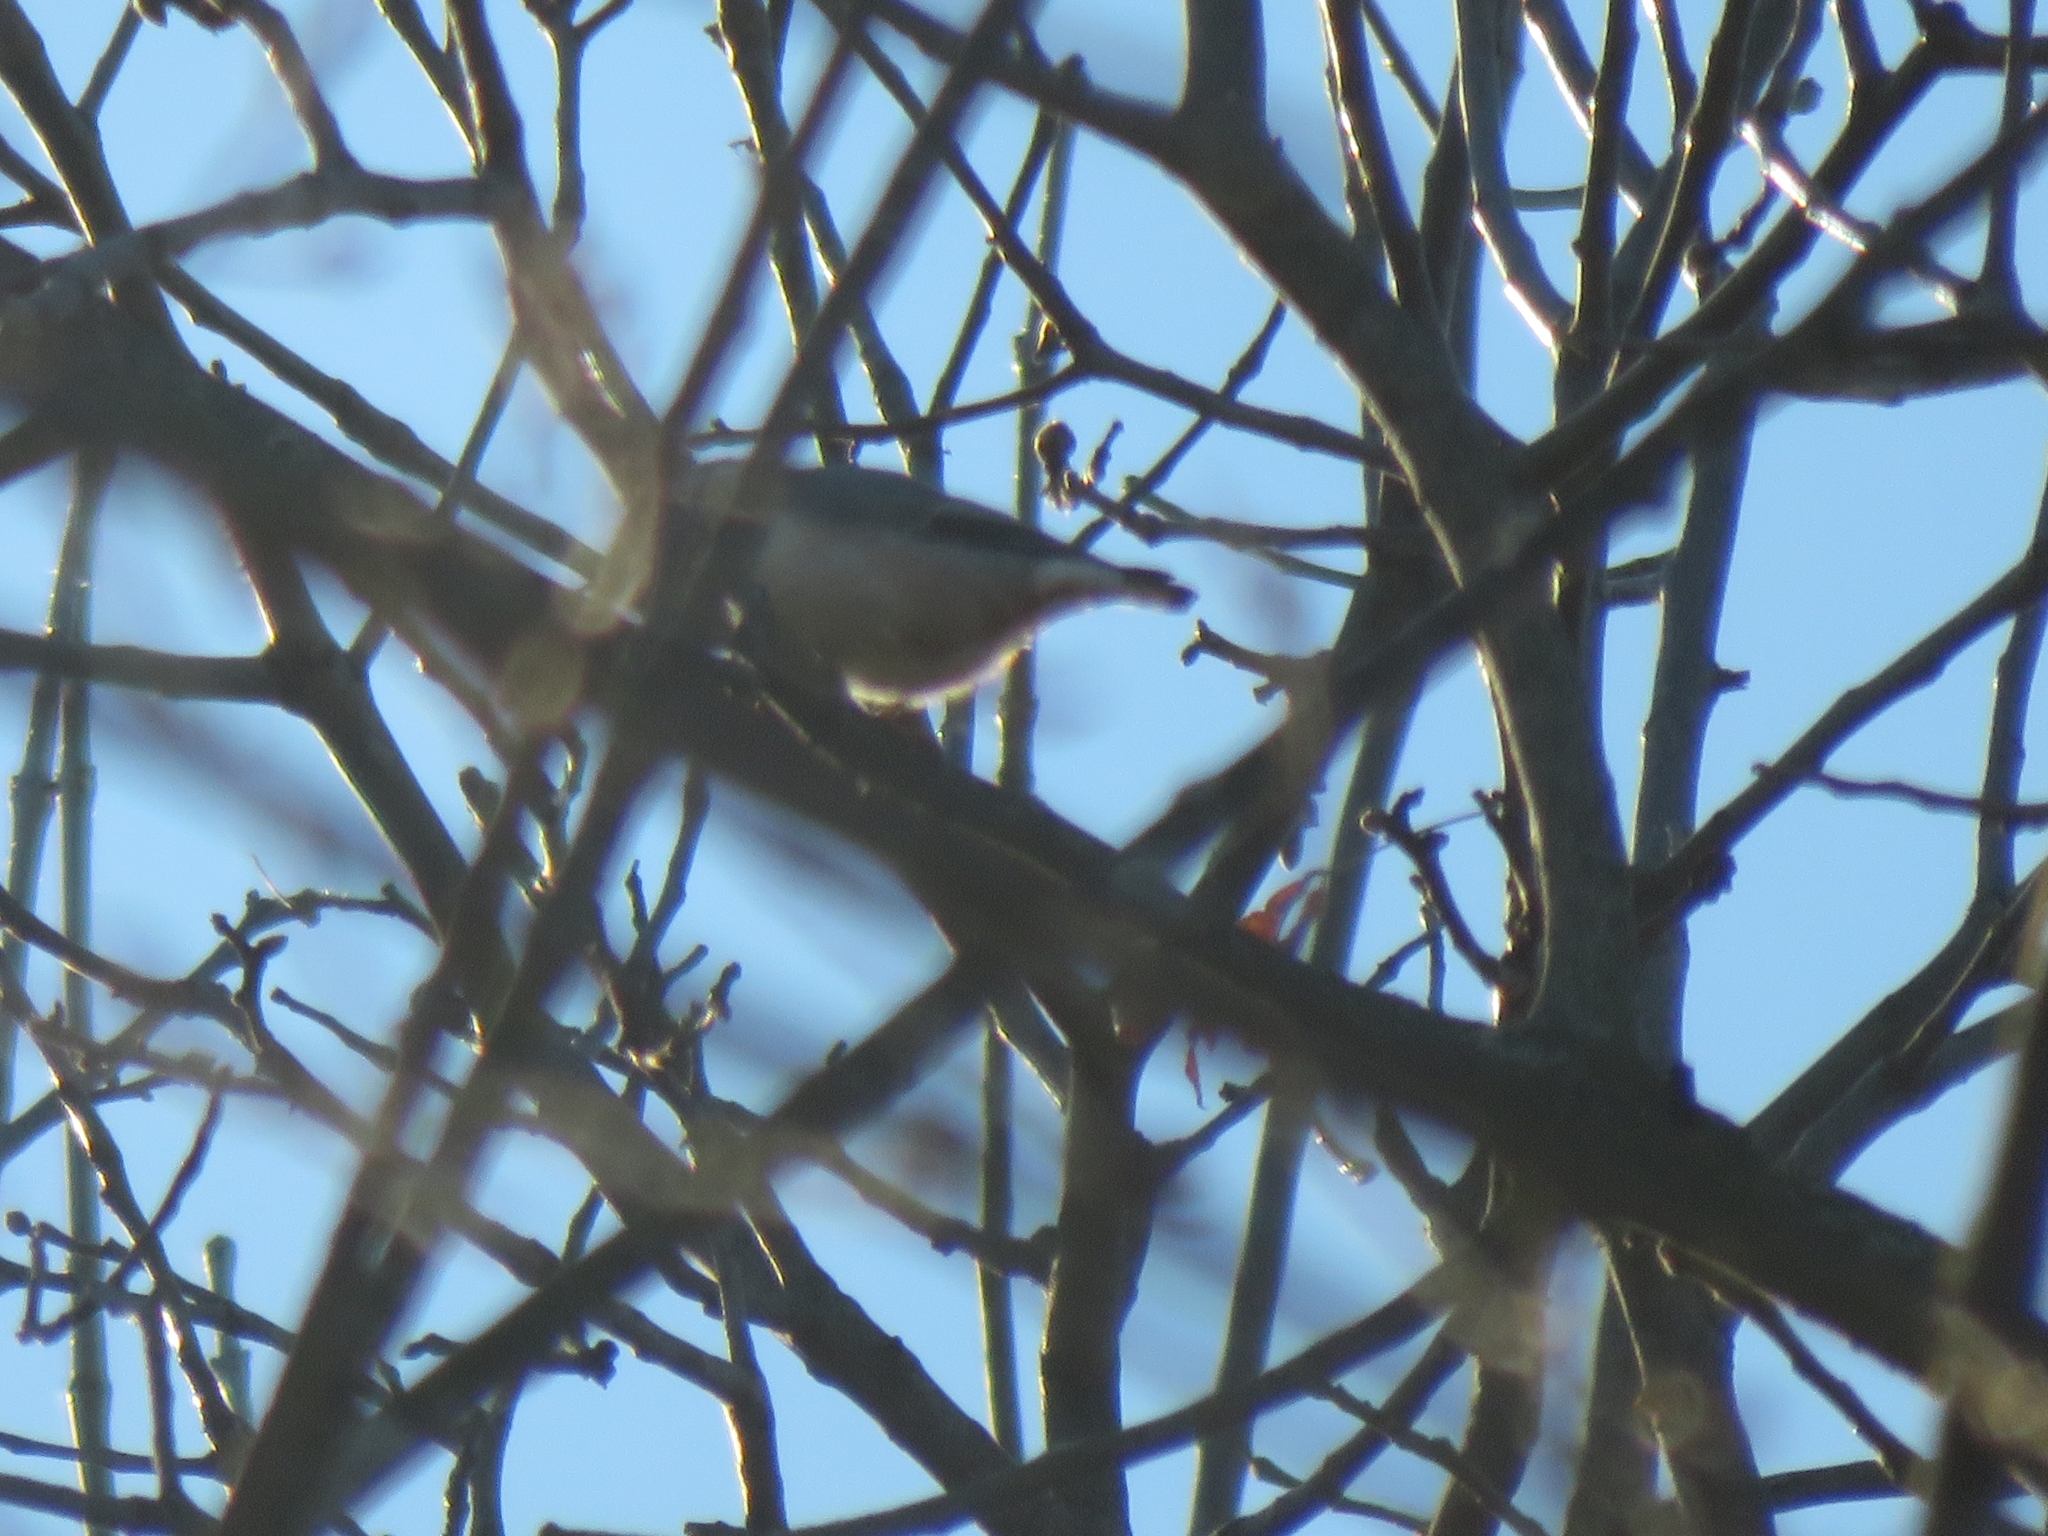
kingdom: Animalia
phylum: Chordata
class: Aves
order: Passeriformes
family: Sittidae
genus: Sitta
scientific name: Sitta carolinensis
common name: White-breasted nuthatch
